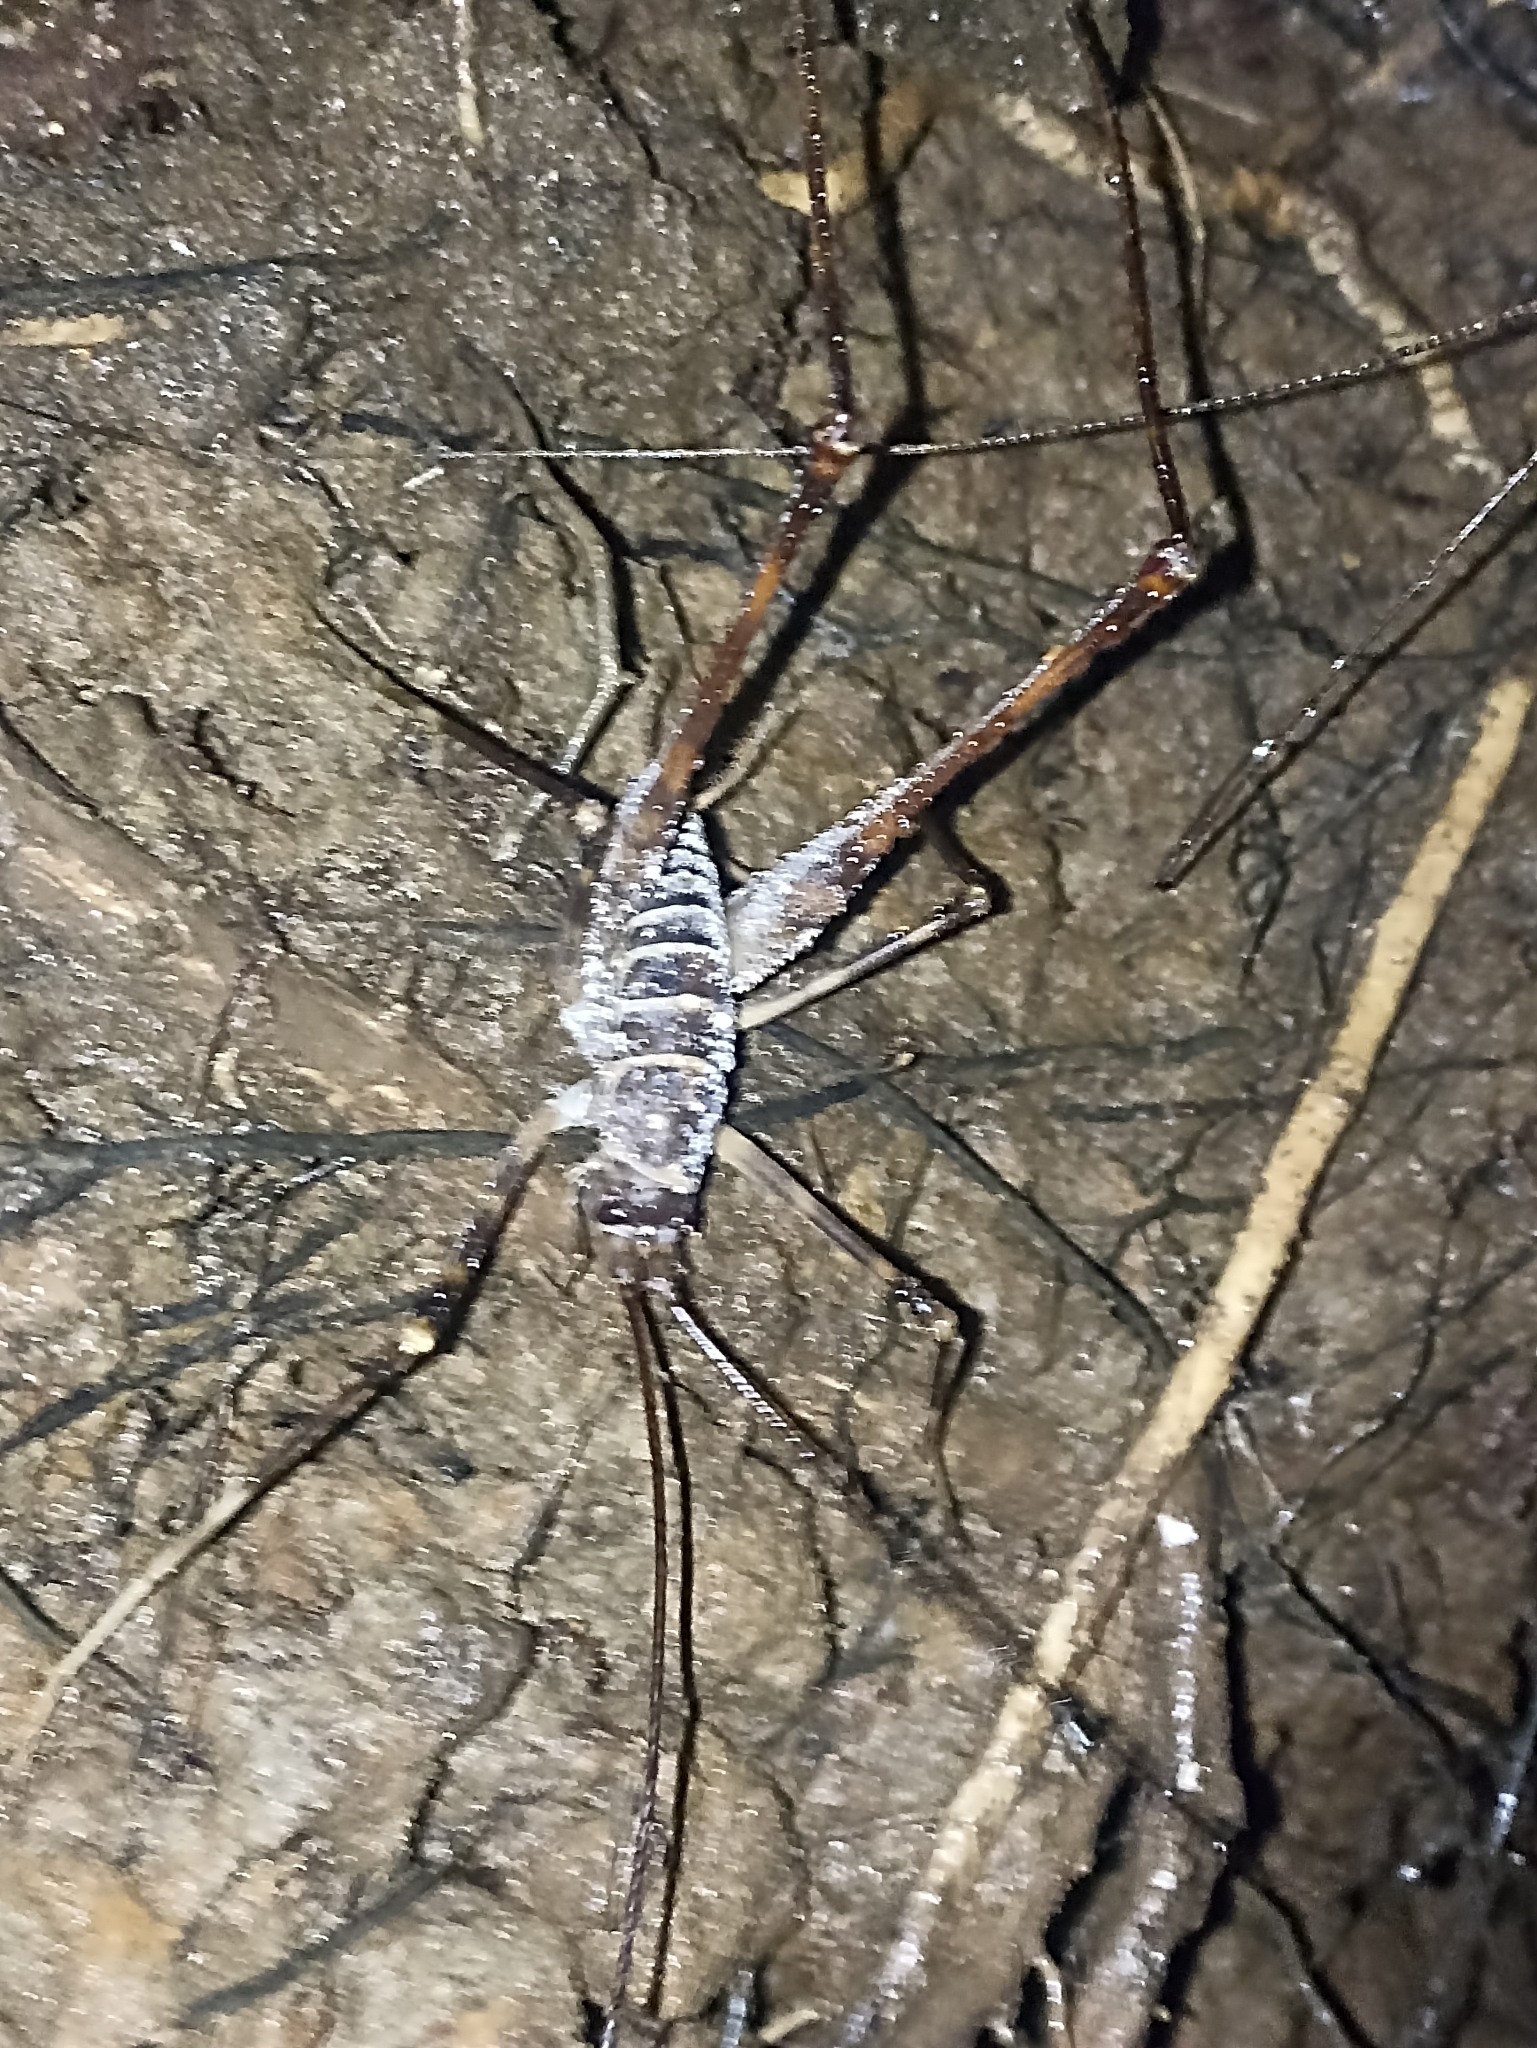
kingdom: Animalia
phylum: Arthropoda
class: Insecta
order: Orthoptera
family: Rhaphidophoridae
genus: Pachyrhamma
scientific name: Pachyrhamma acanthocera
